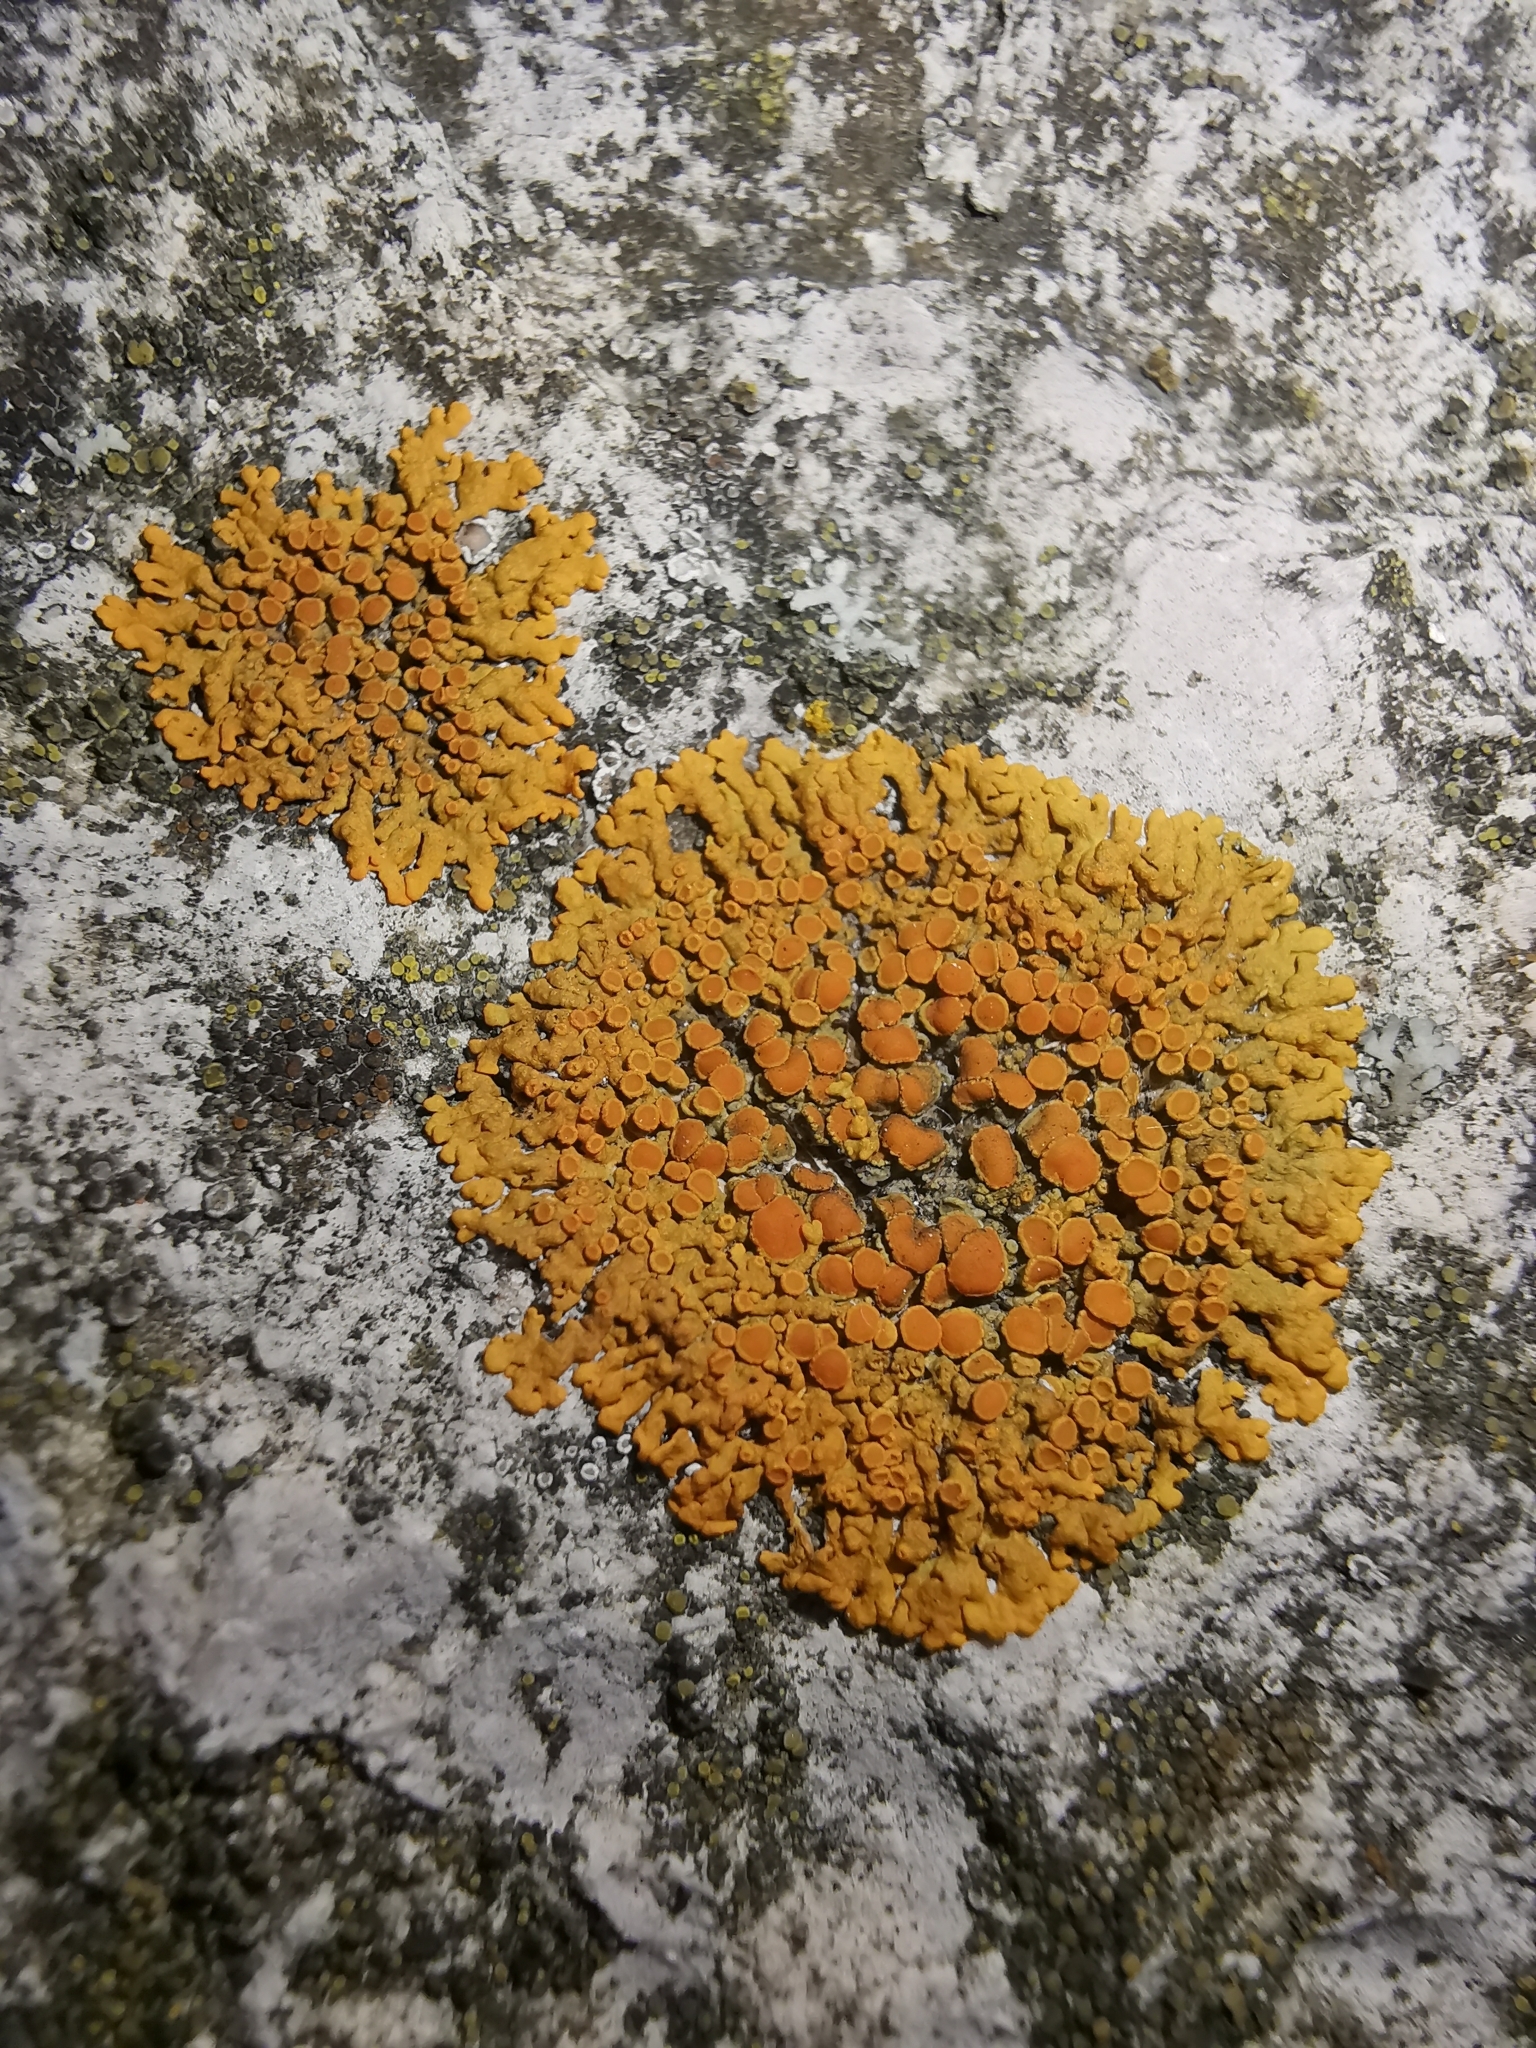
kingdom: Fungi
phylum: Ascomycota
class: Lecanoromycetes
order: Teloschistales
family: Teloschistaceae
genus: Xanthoria
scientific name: Xanthoria elegans
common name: Elegant sunburst lichen
